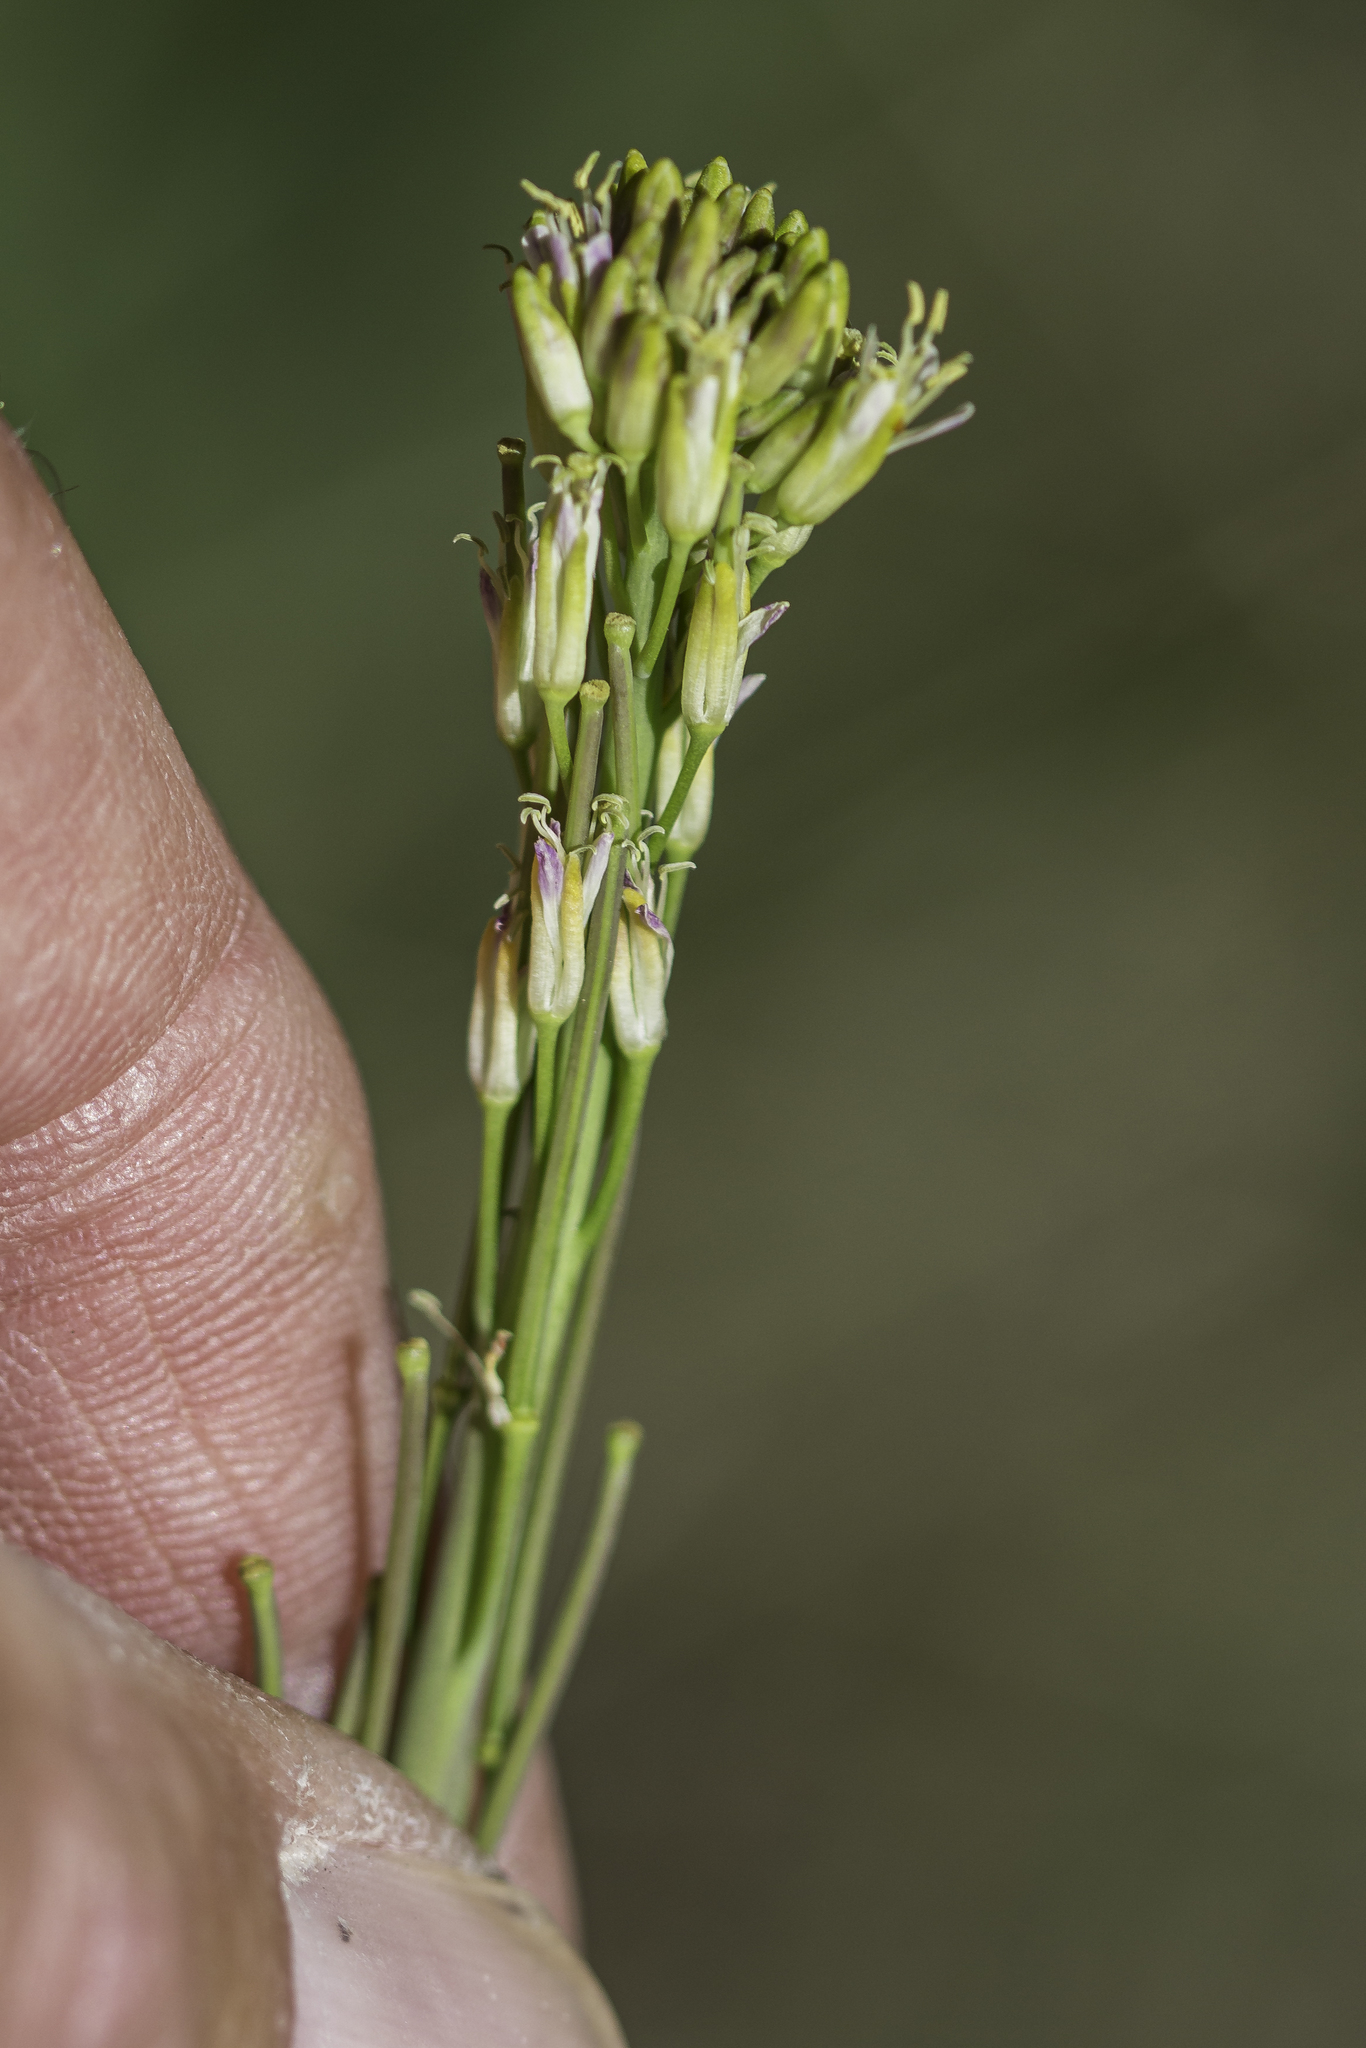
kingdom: Plantae
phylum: Tracheophyta
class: Magnoliopsida
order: Brassicales
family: Brassicaceae
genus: Turritis
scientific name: Turritis glabra
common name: Tower rockcress
